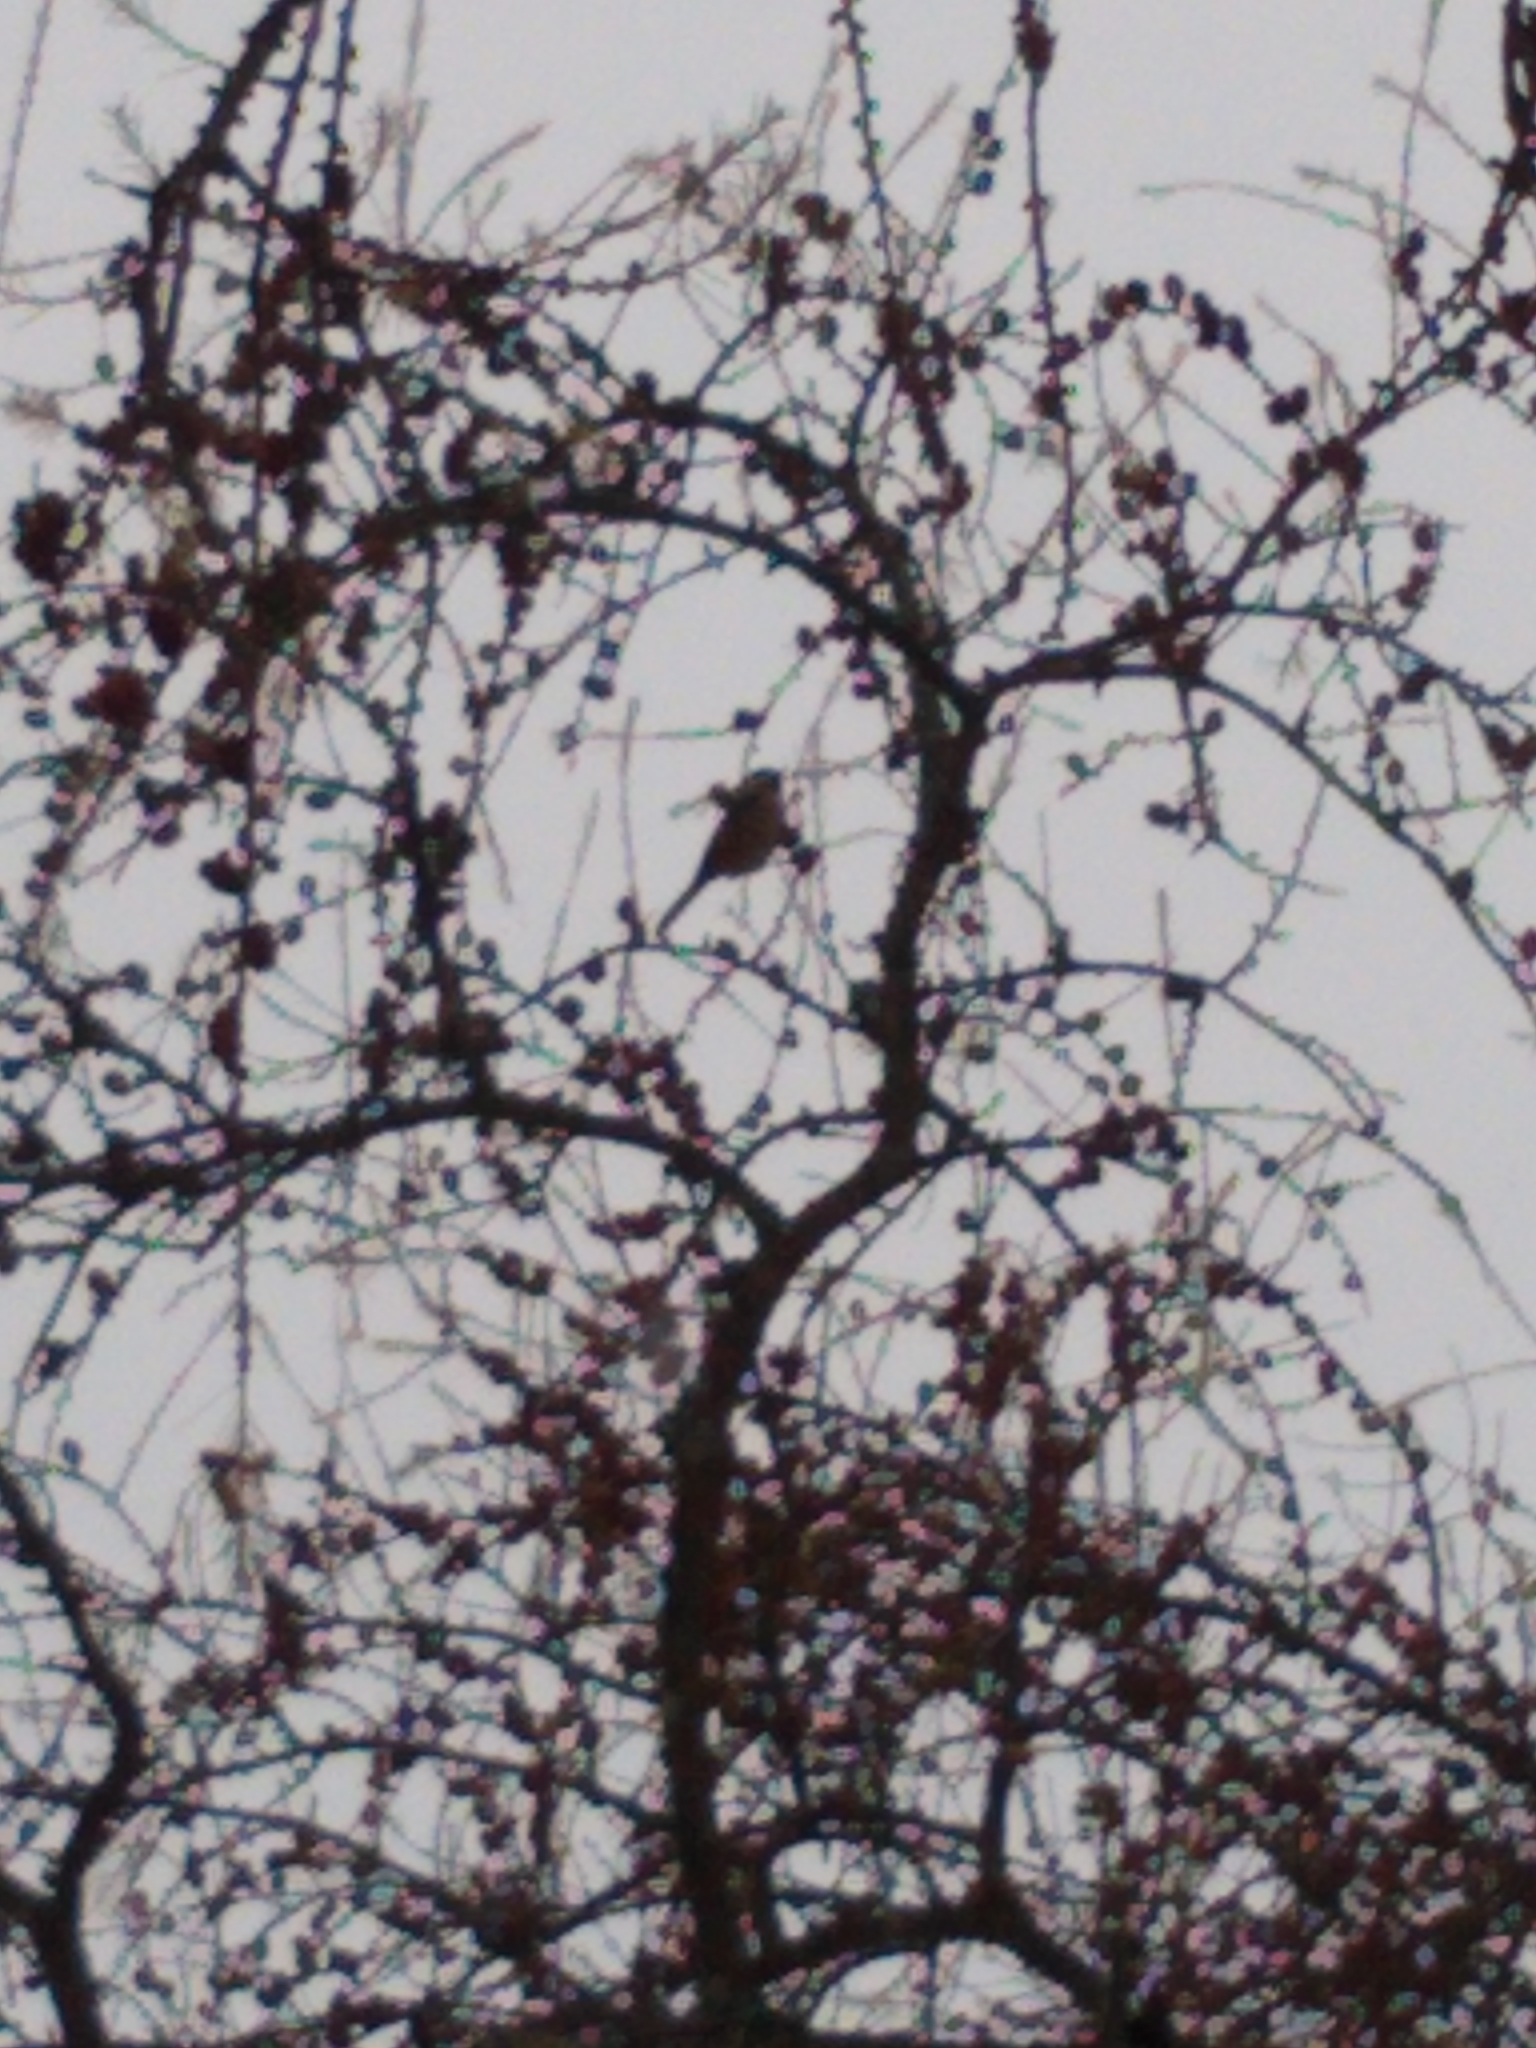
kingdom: Animalia
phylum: Chordata
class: Aves
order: Passeriformes
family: Paridae
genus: Poecile
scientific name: Poecile atricapillus
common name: Black-capped chickadee
